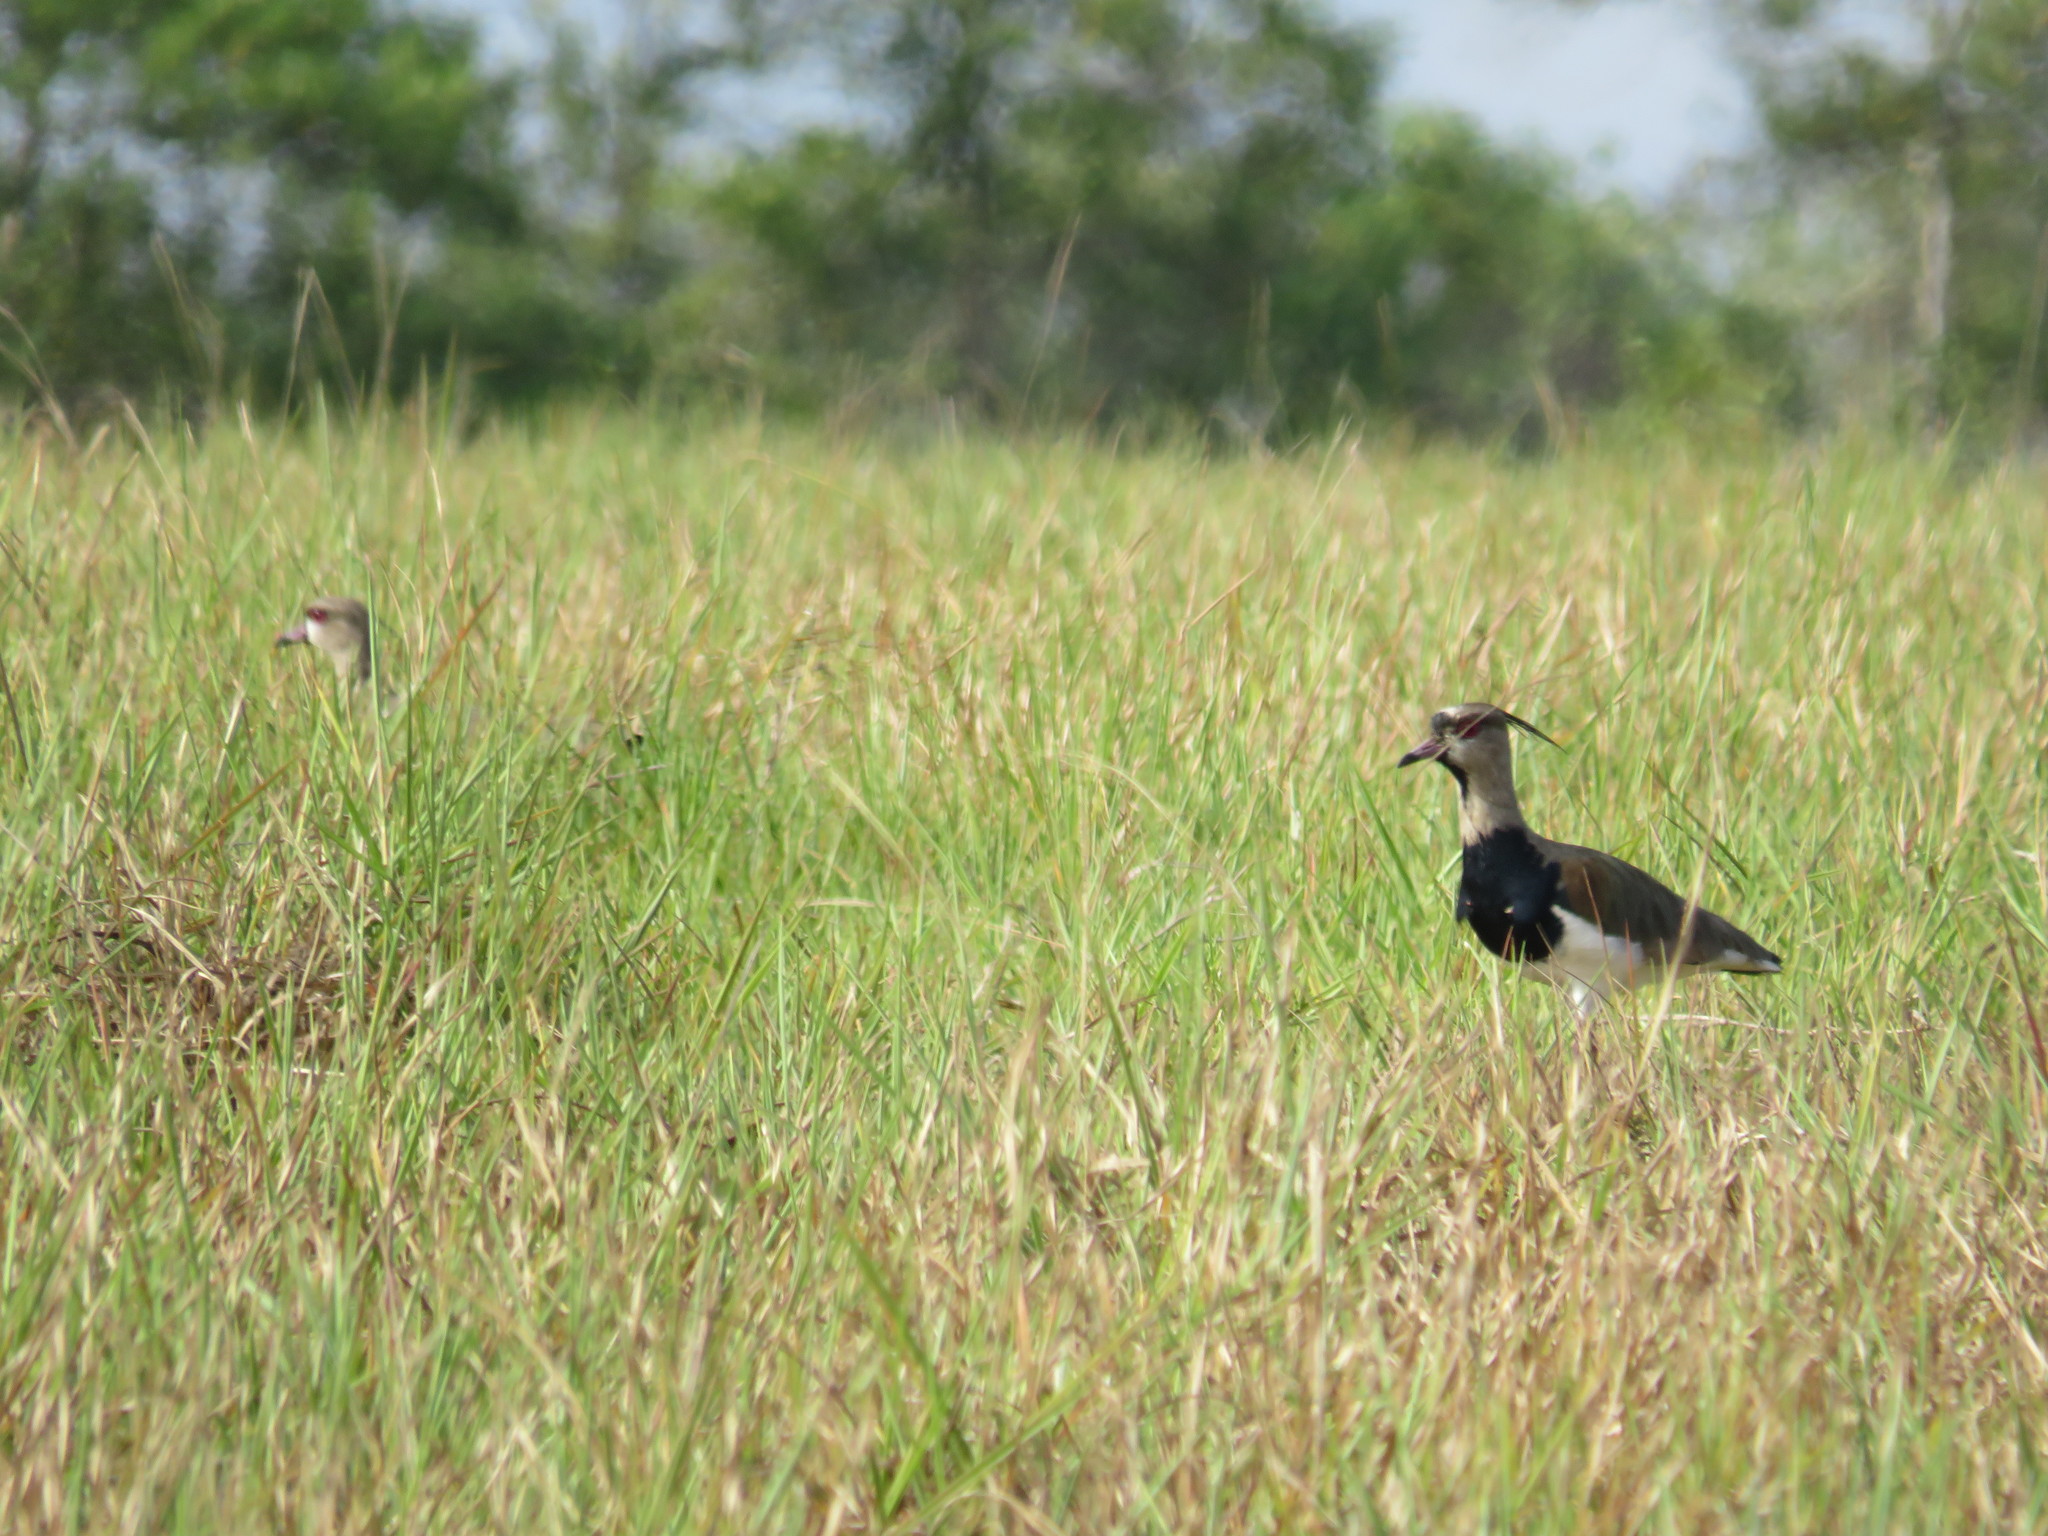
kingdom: Animalia
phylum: Chordata
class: Aves
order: Charadriiformes
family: Charadriidae
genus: Vanellus
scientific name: Vanellus chilensis
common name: Southern lapwing
